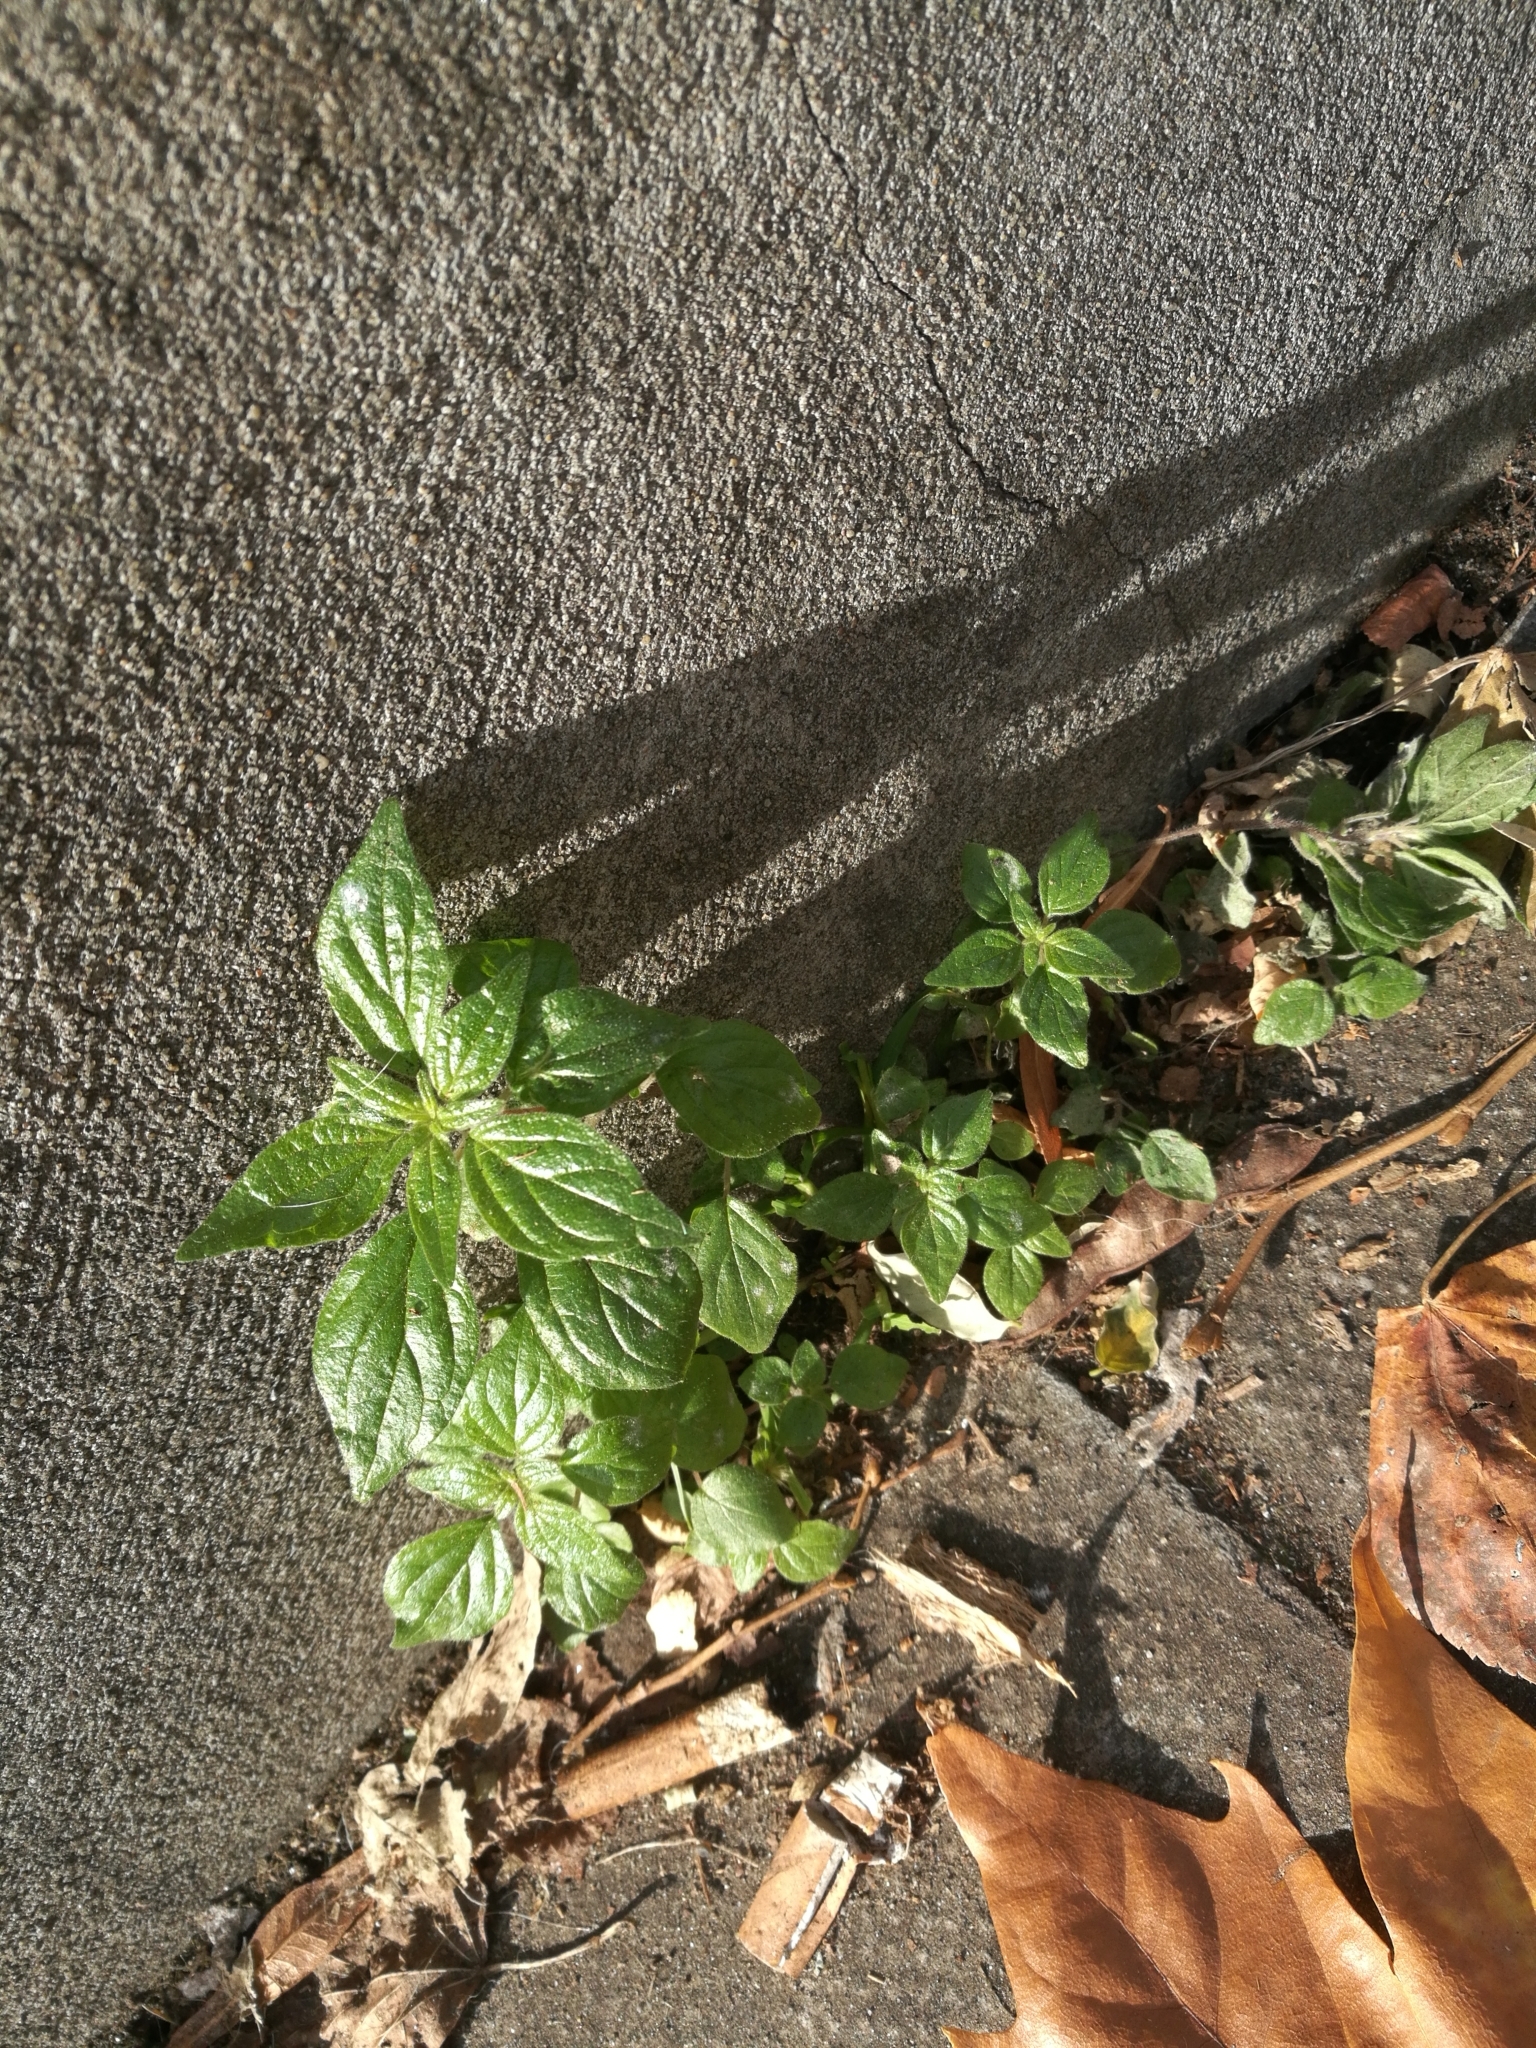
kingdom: Plantae
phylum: Tracheophyta
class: Magnoliopsida
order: Rosales
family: Urticaceae
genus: Parietaria
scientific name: Parietaria judaica
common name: Pellitory-of-the-wall
